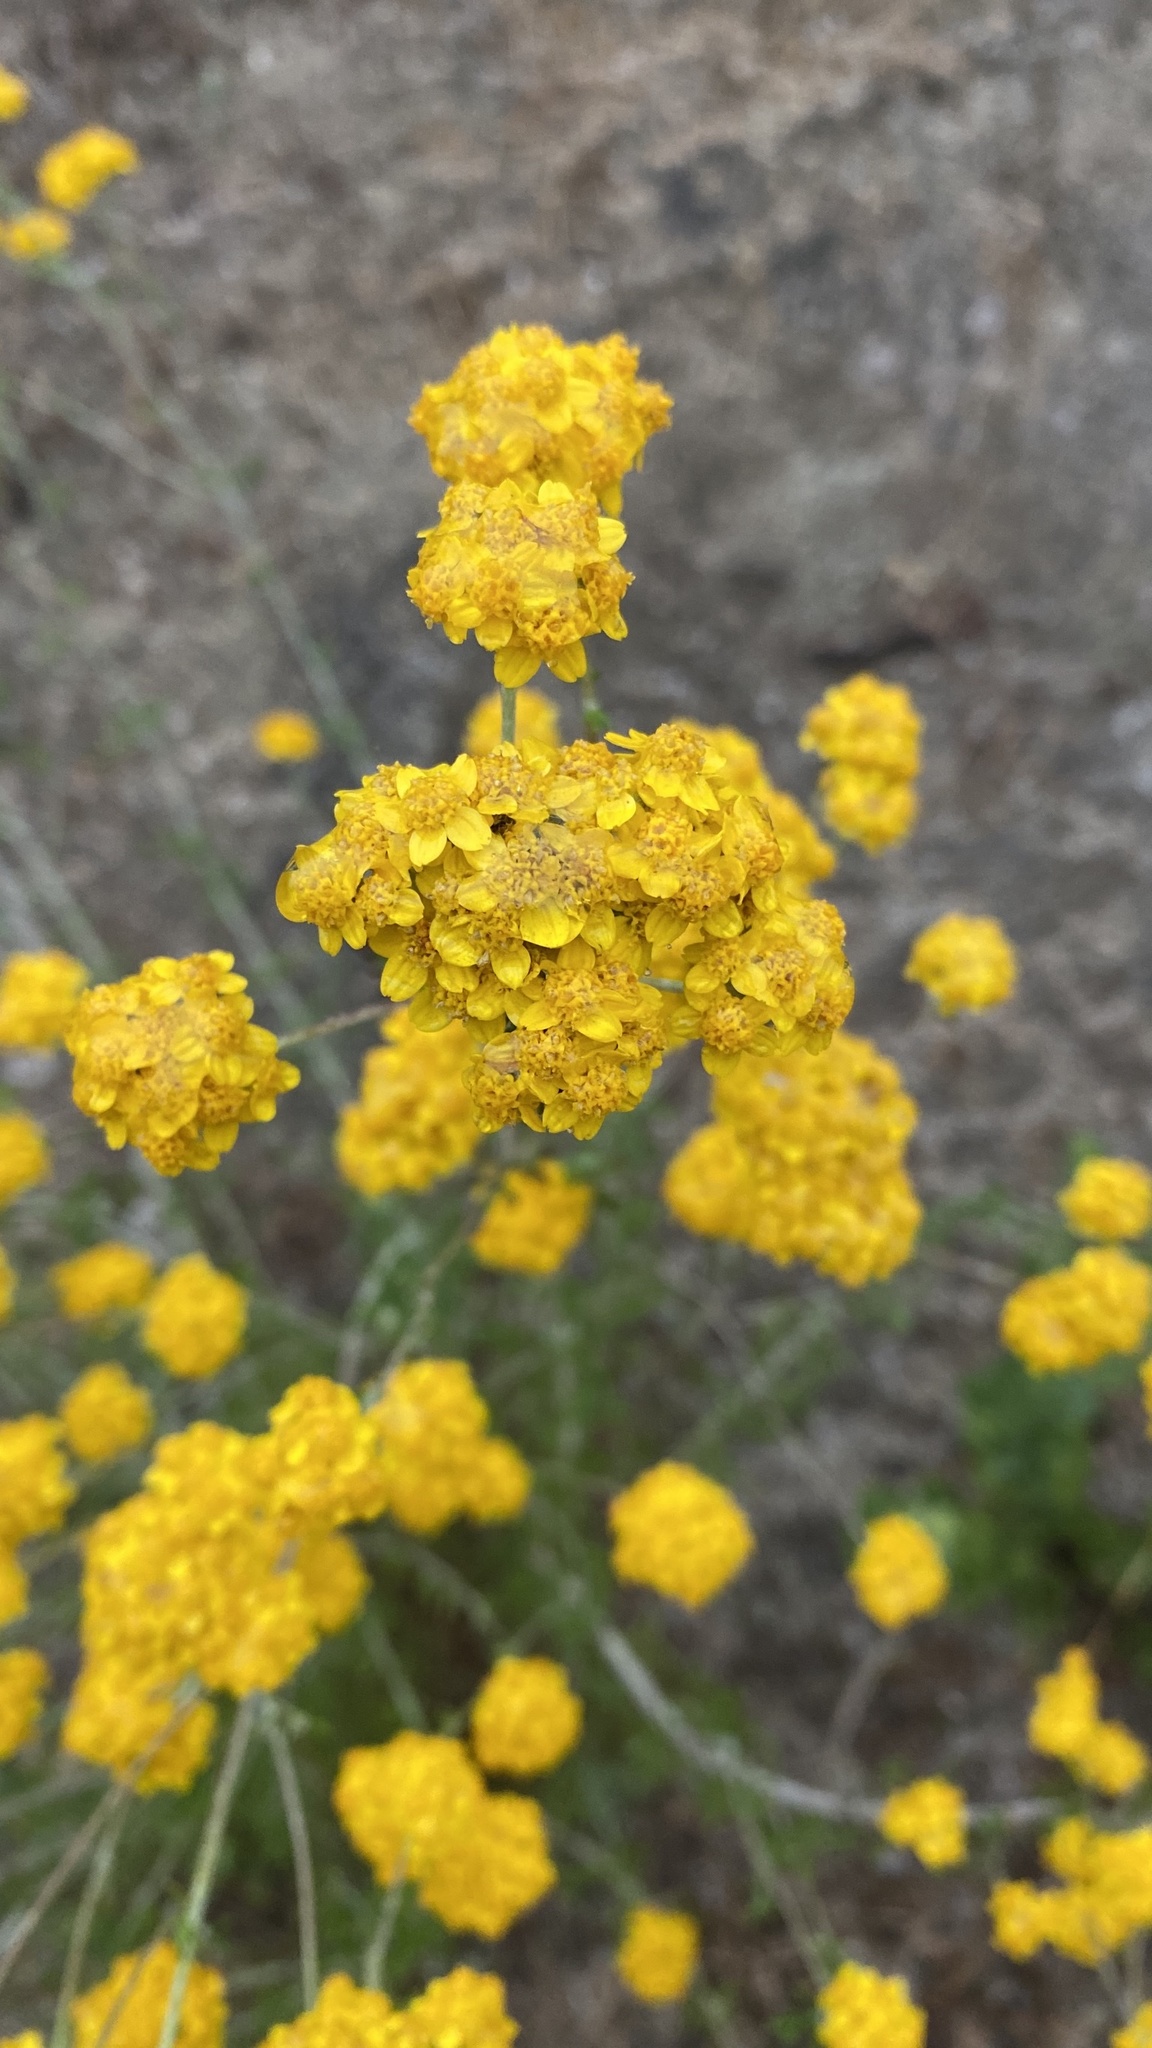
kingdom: Plantae
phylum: Tracheophyta
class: Magnoliopsida
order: Asterales
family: Asteraceae
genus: Eriophyllum
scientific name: Eriophyllum confertiflorum
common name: Golden-yarrow
